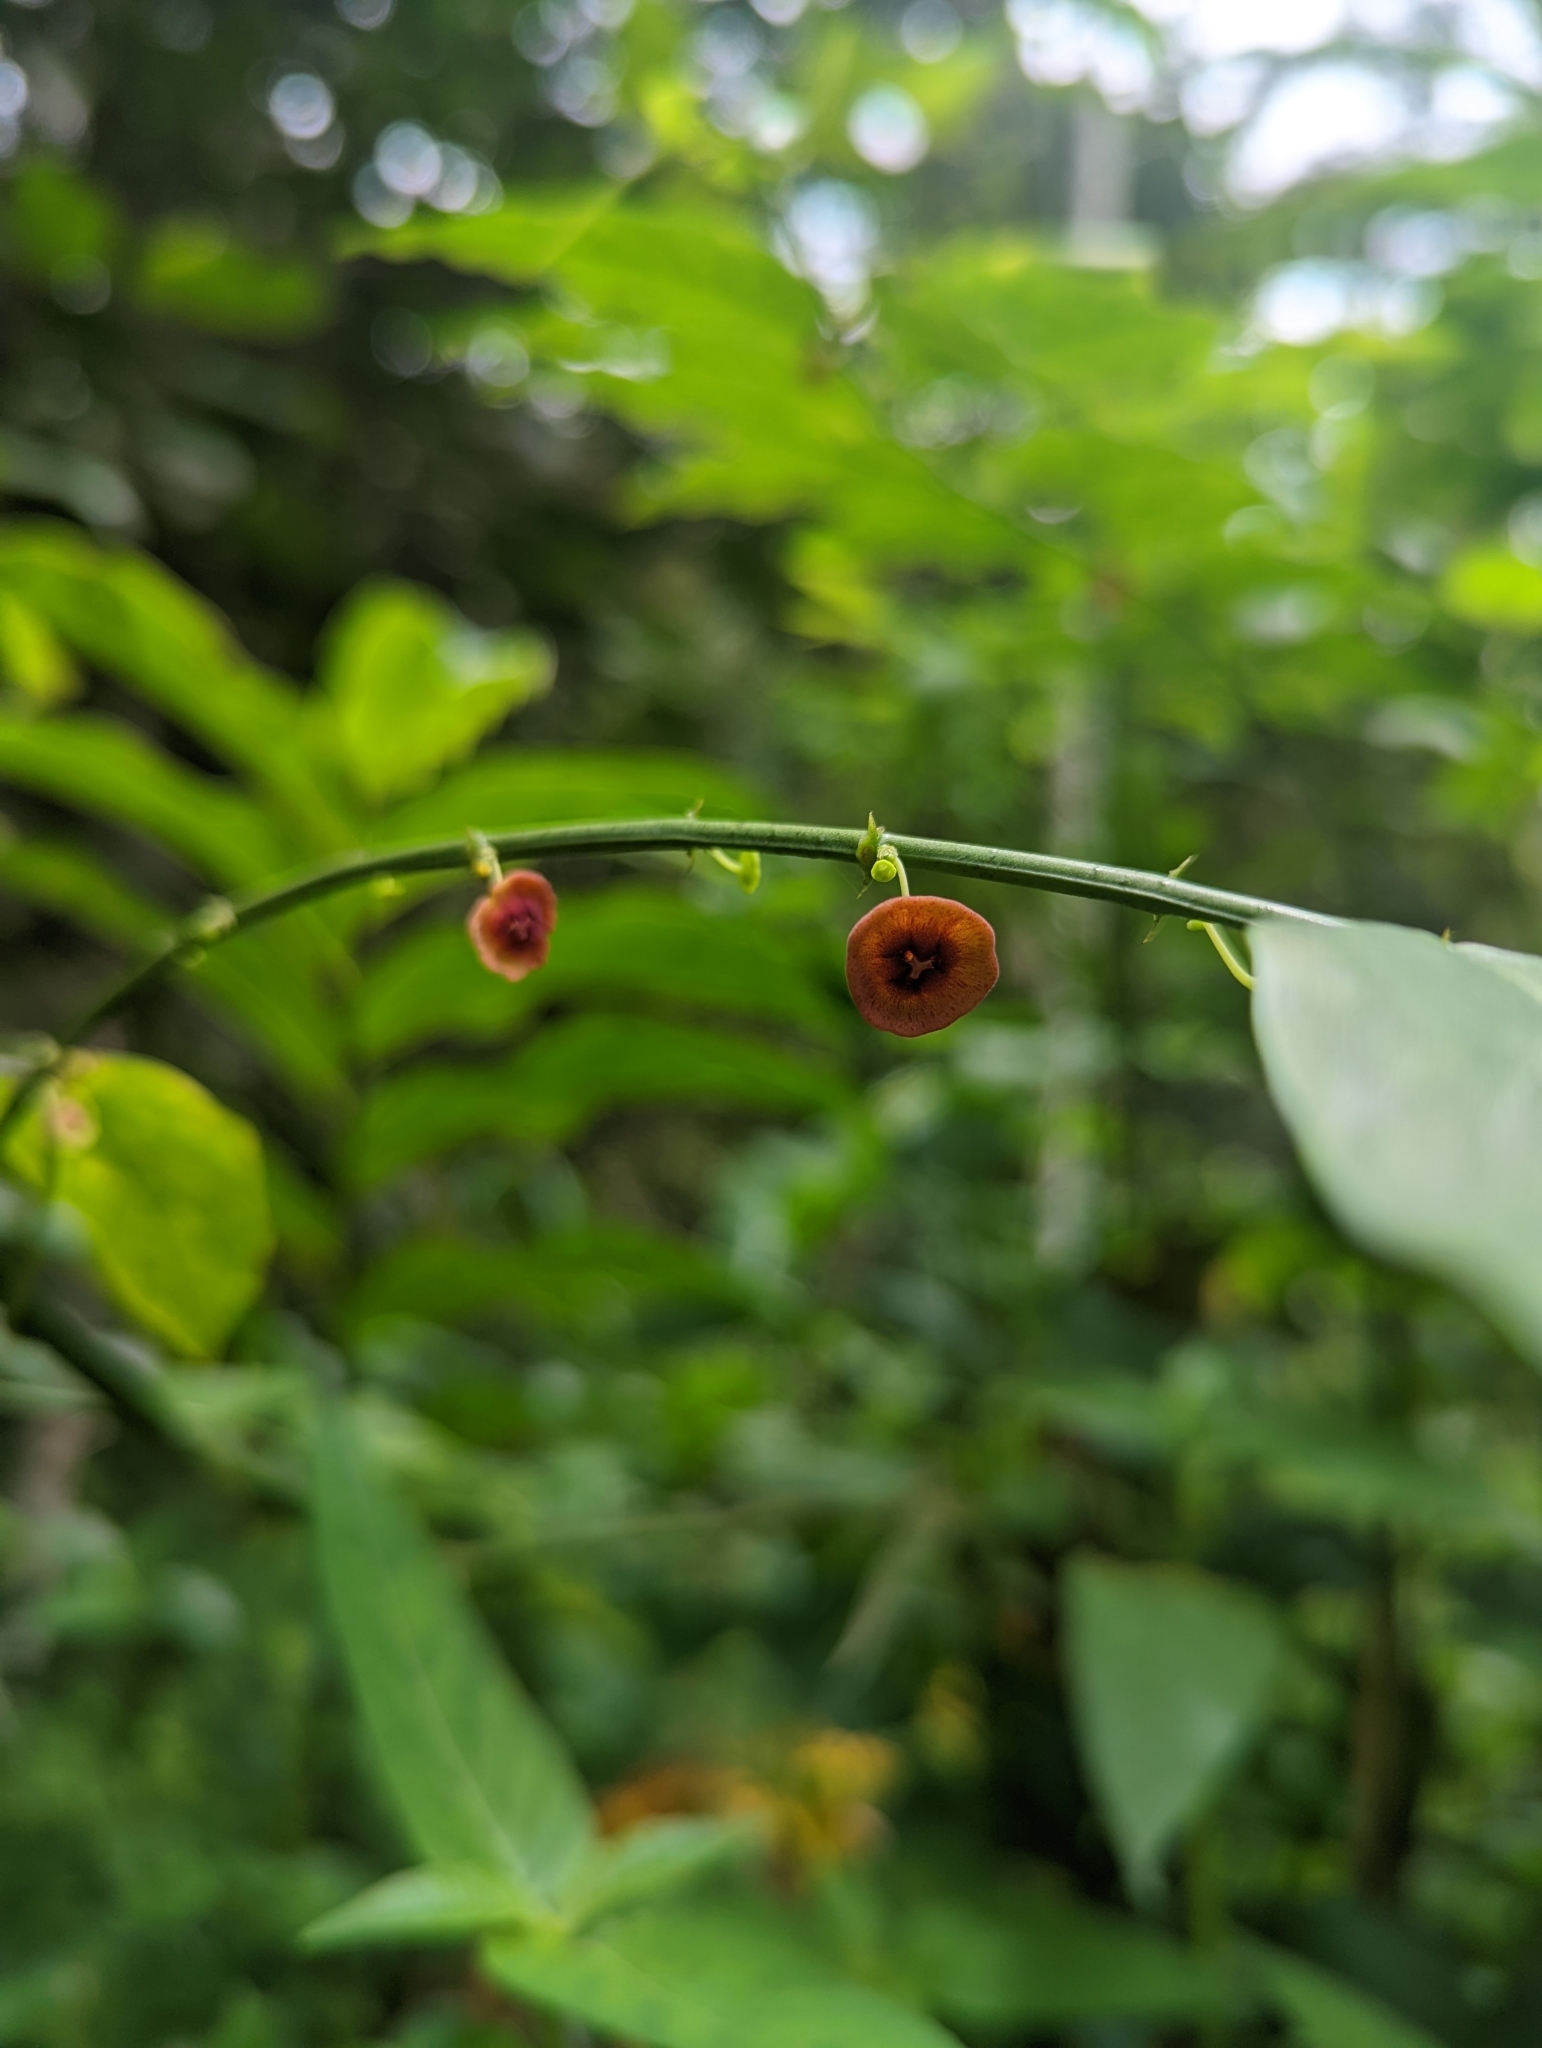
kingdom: Plantae
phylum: Tracheophyta
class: Magnoliopsida
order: Malpighiales
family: Phyllanthaceae
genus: Breynia
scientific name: Breynia androgyna
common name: Star gooseberry
